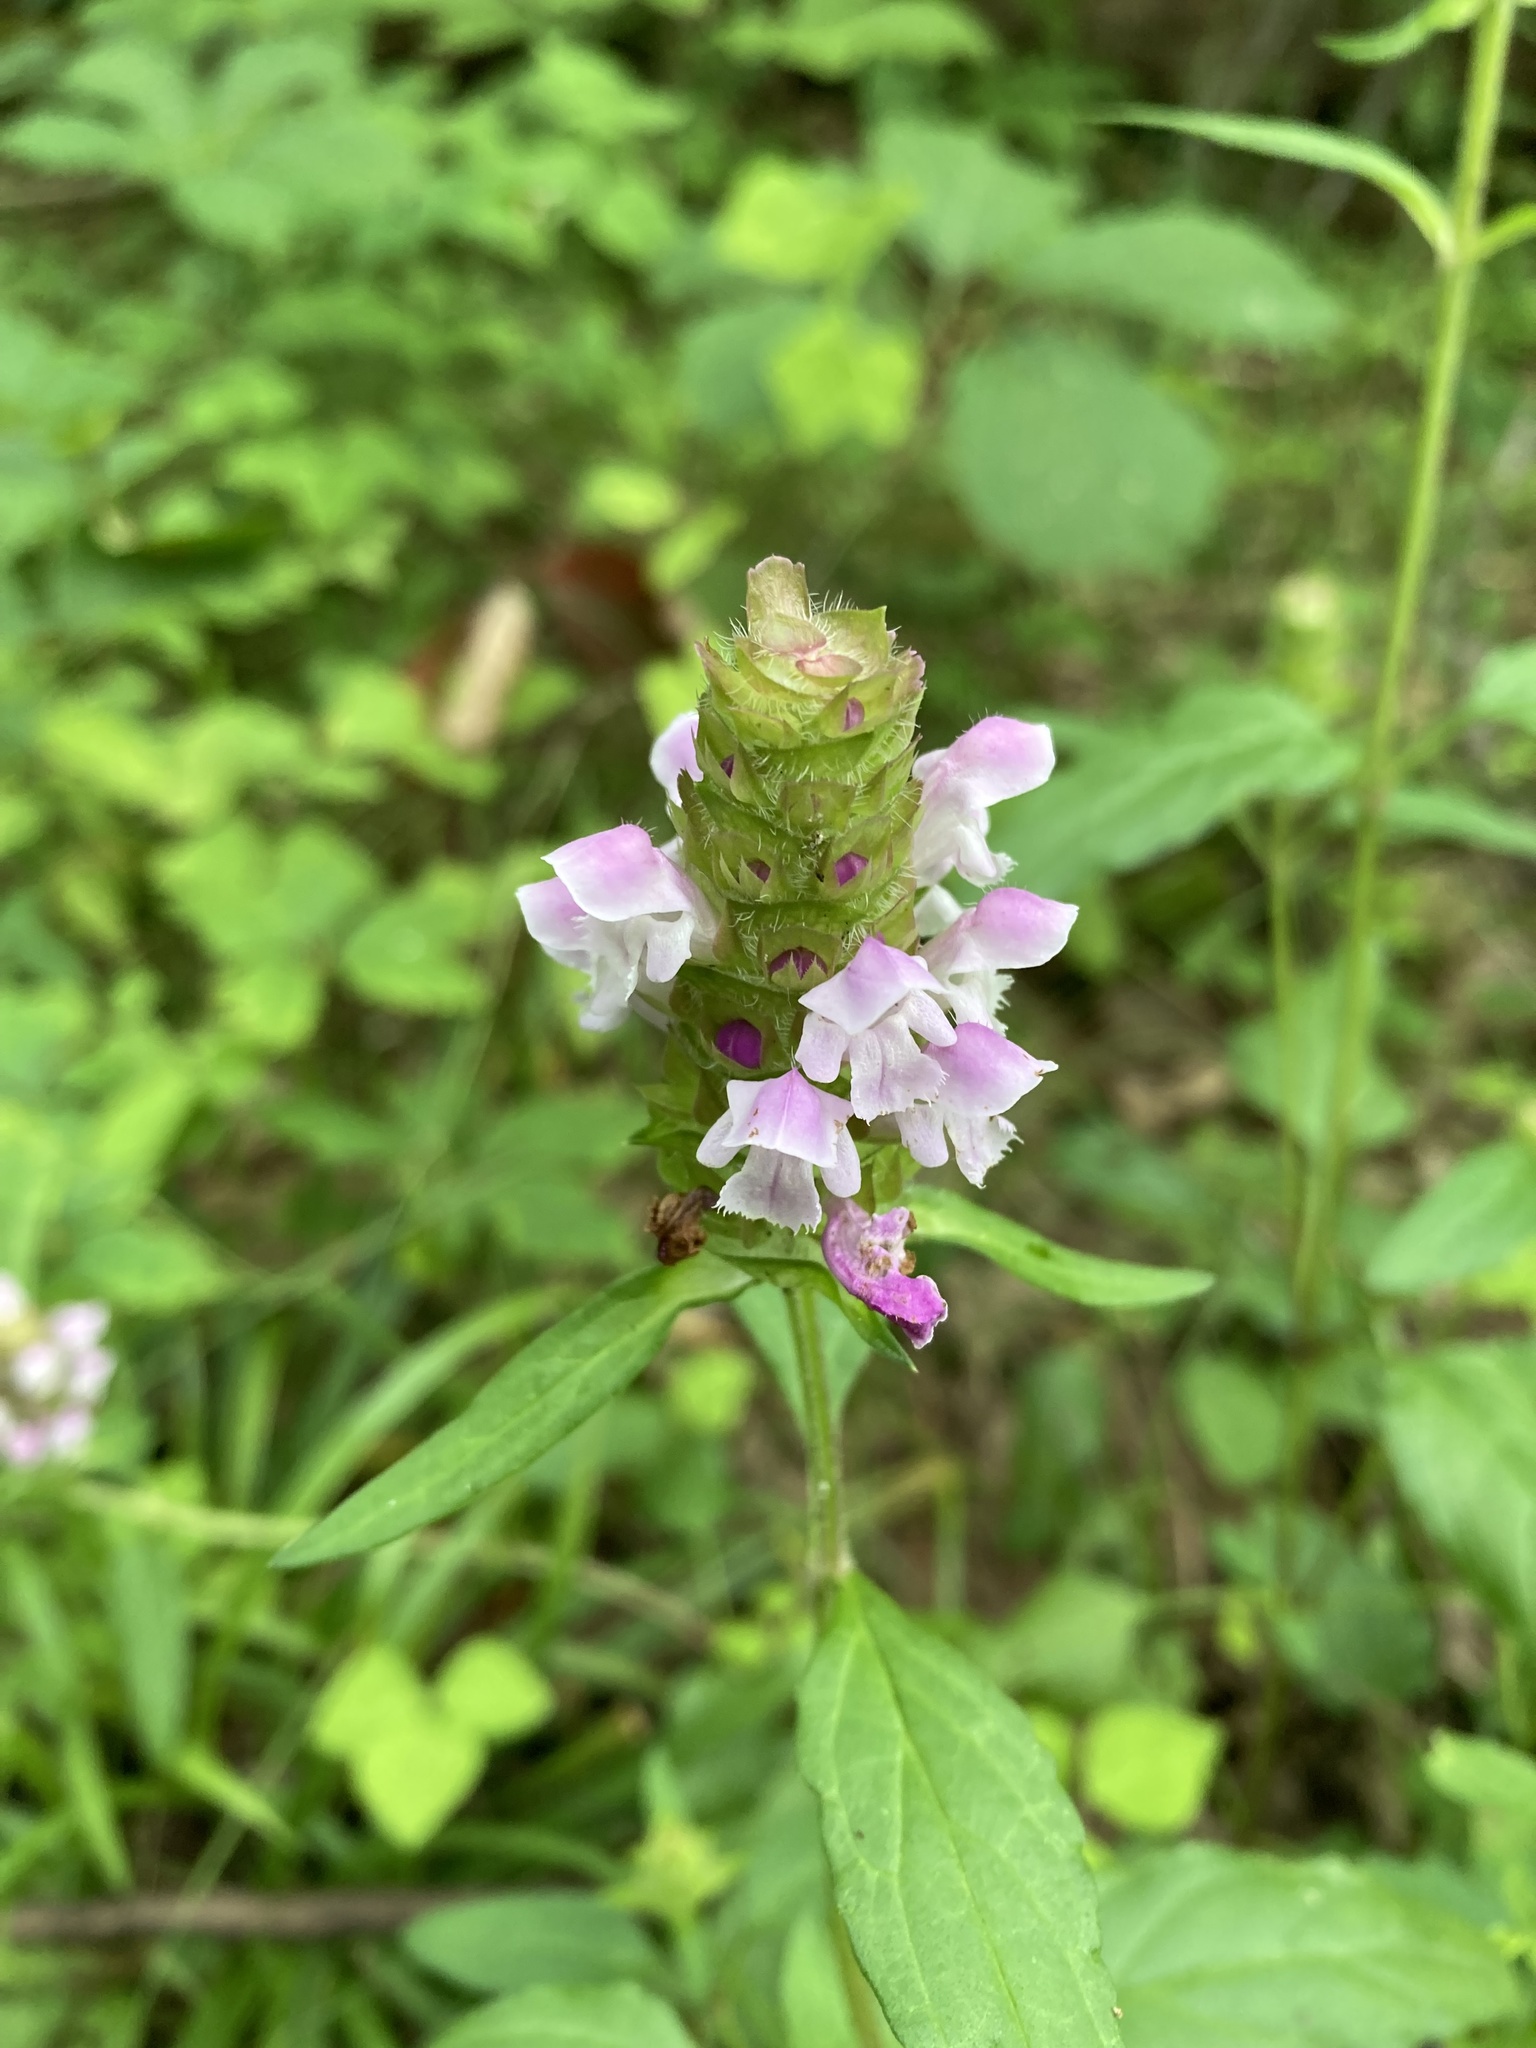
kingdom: Plantae
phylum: Tracheophyta
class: Magnoliopsida
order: Lamiales
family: Lamiaceae
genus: Prunella
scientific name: Prunella vulgaris
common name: Heal-all
